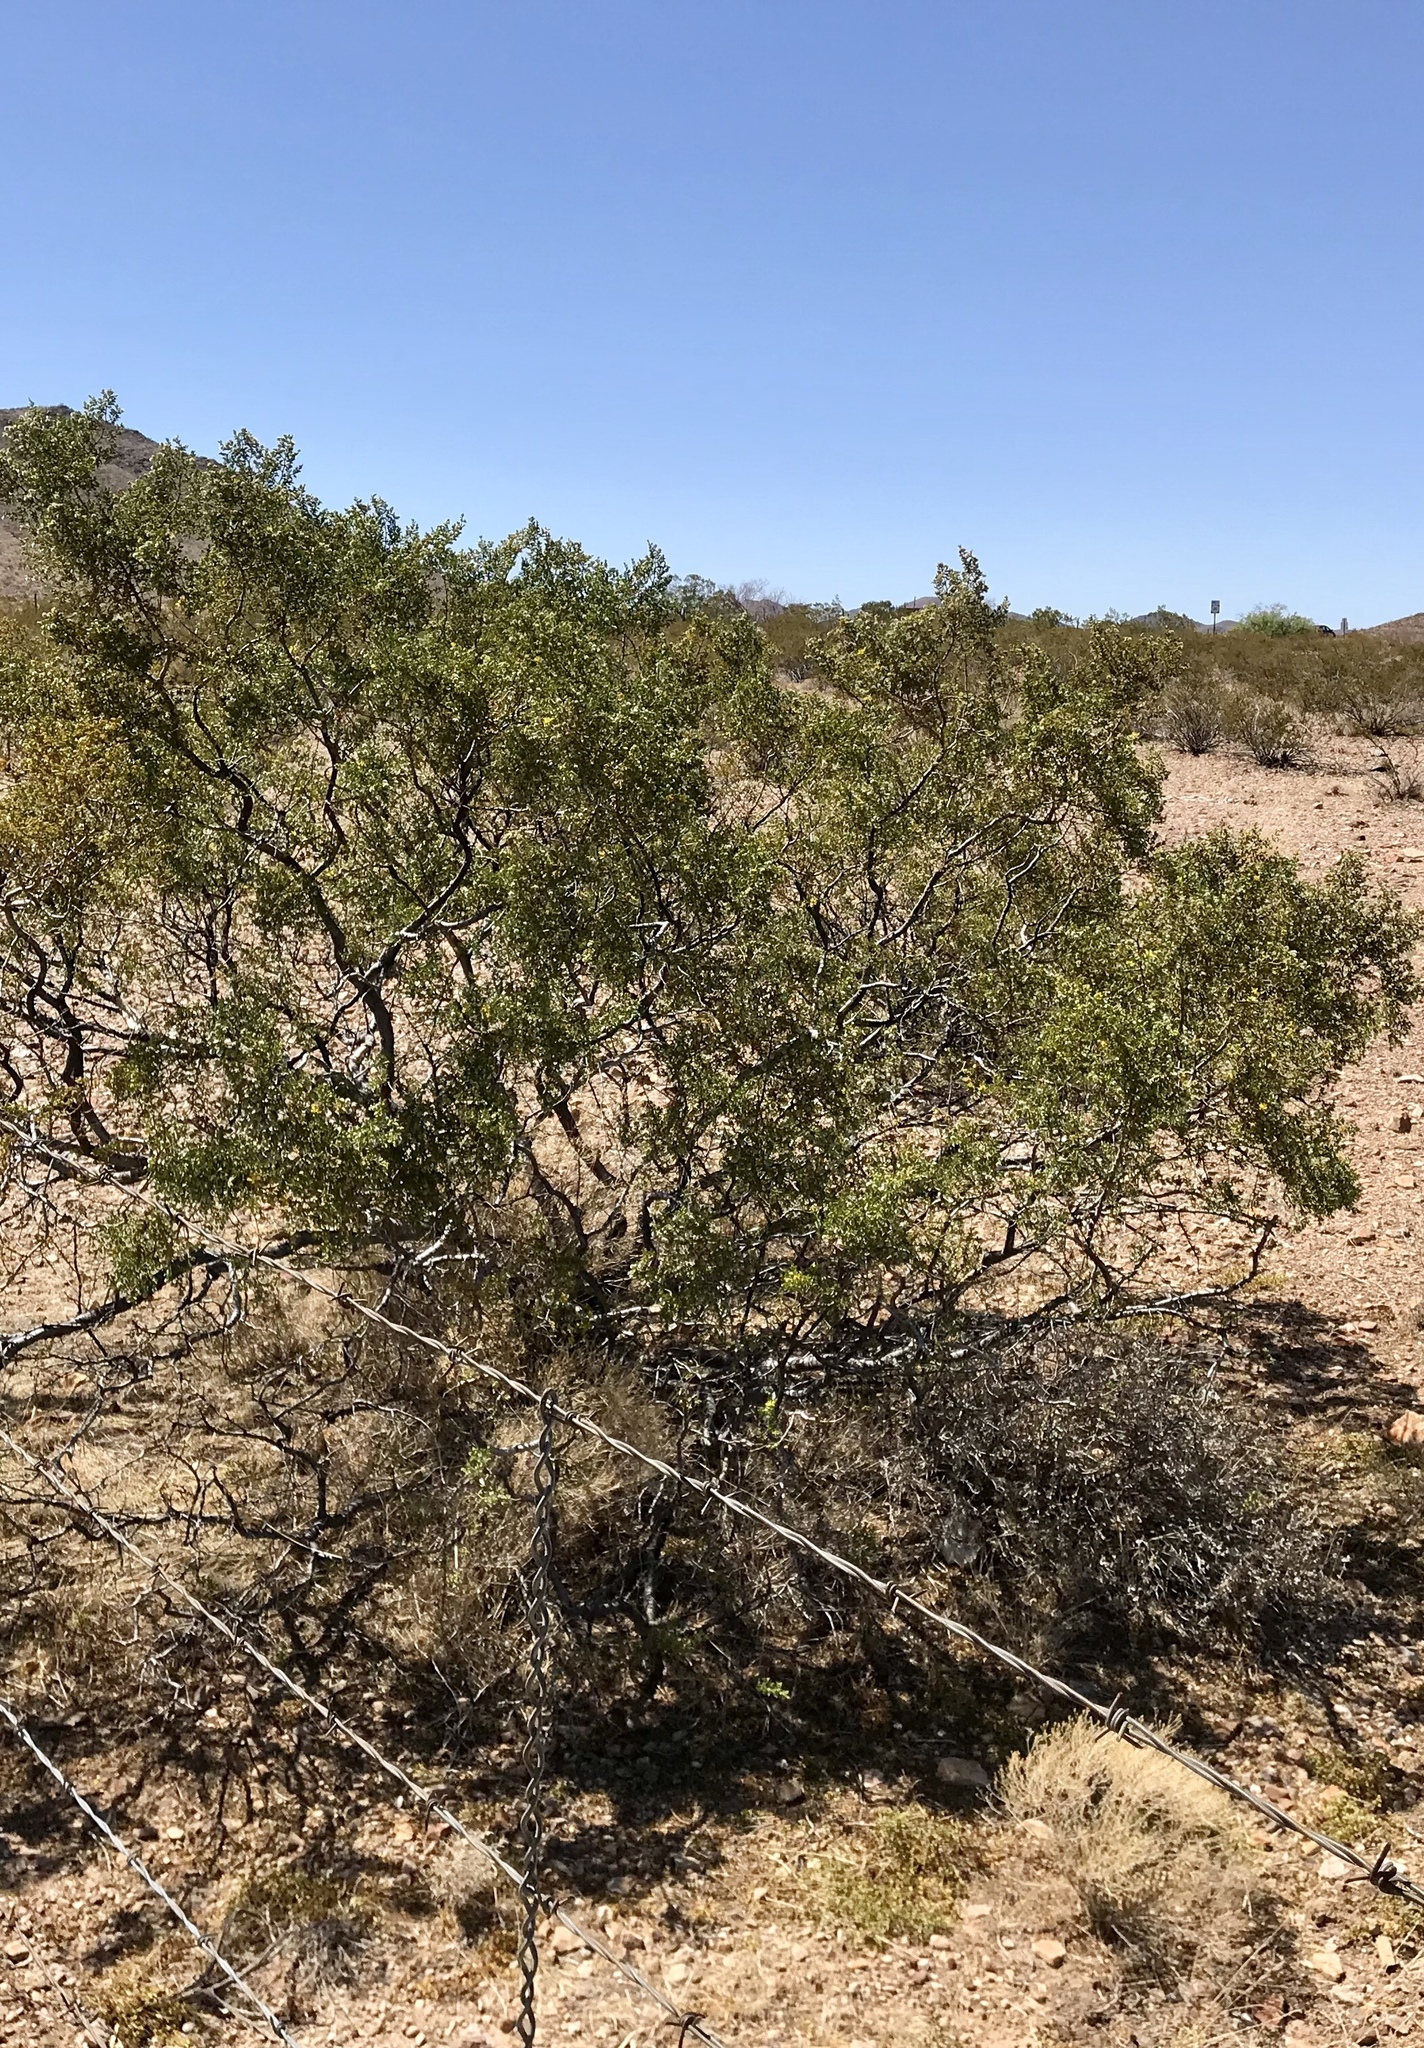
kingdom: Plantae
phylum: Tracheophyta
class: Magnoliopsida
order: Zygophyllales
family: Zygophyllaceae
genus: Larrea
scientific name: Larrea tridentata
